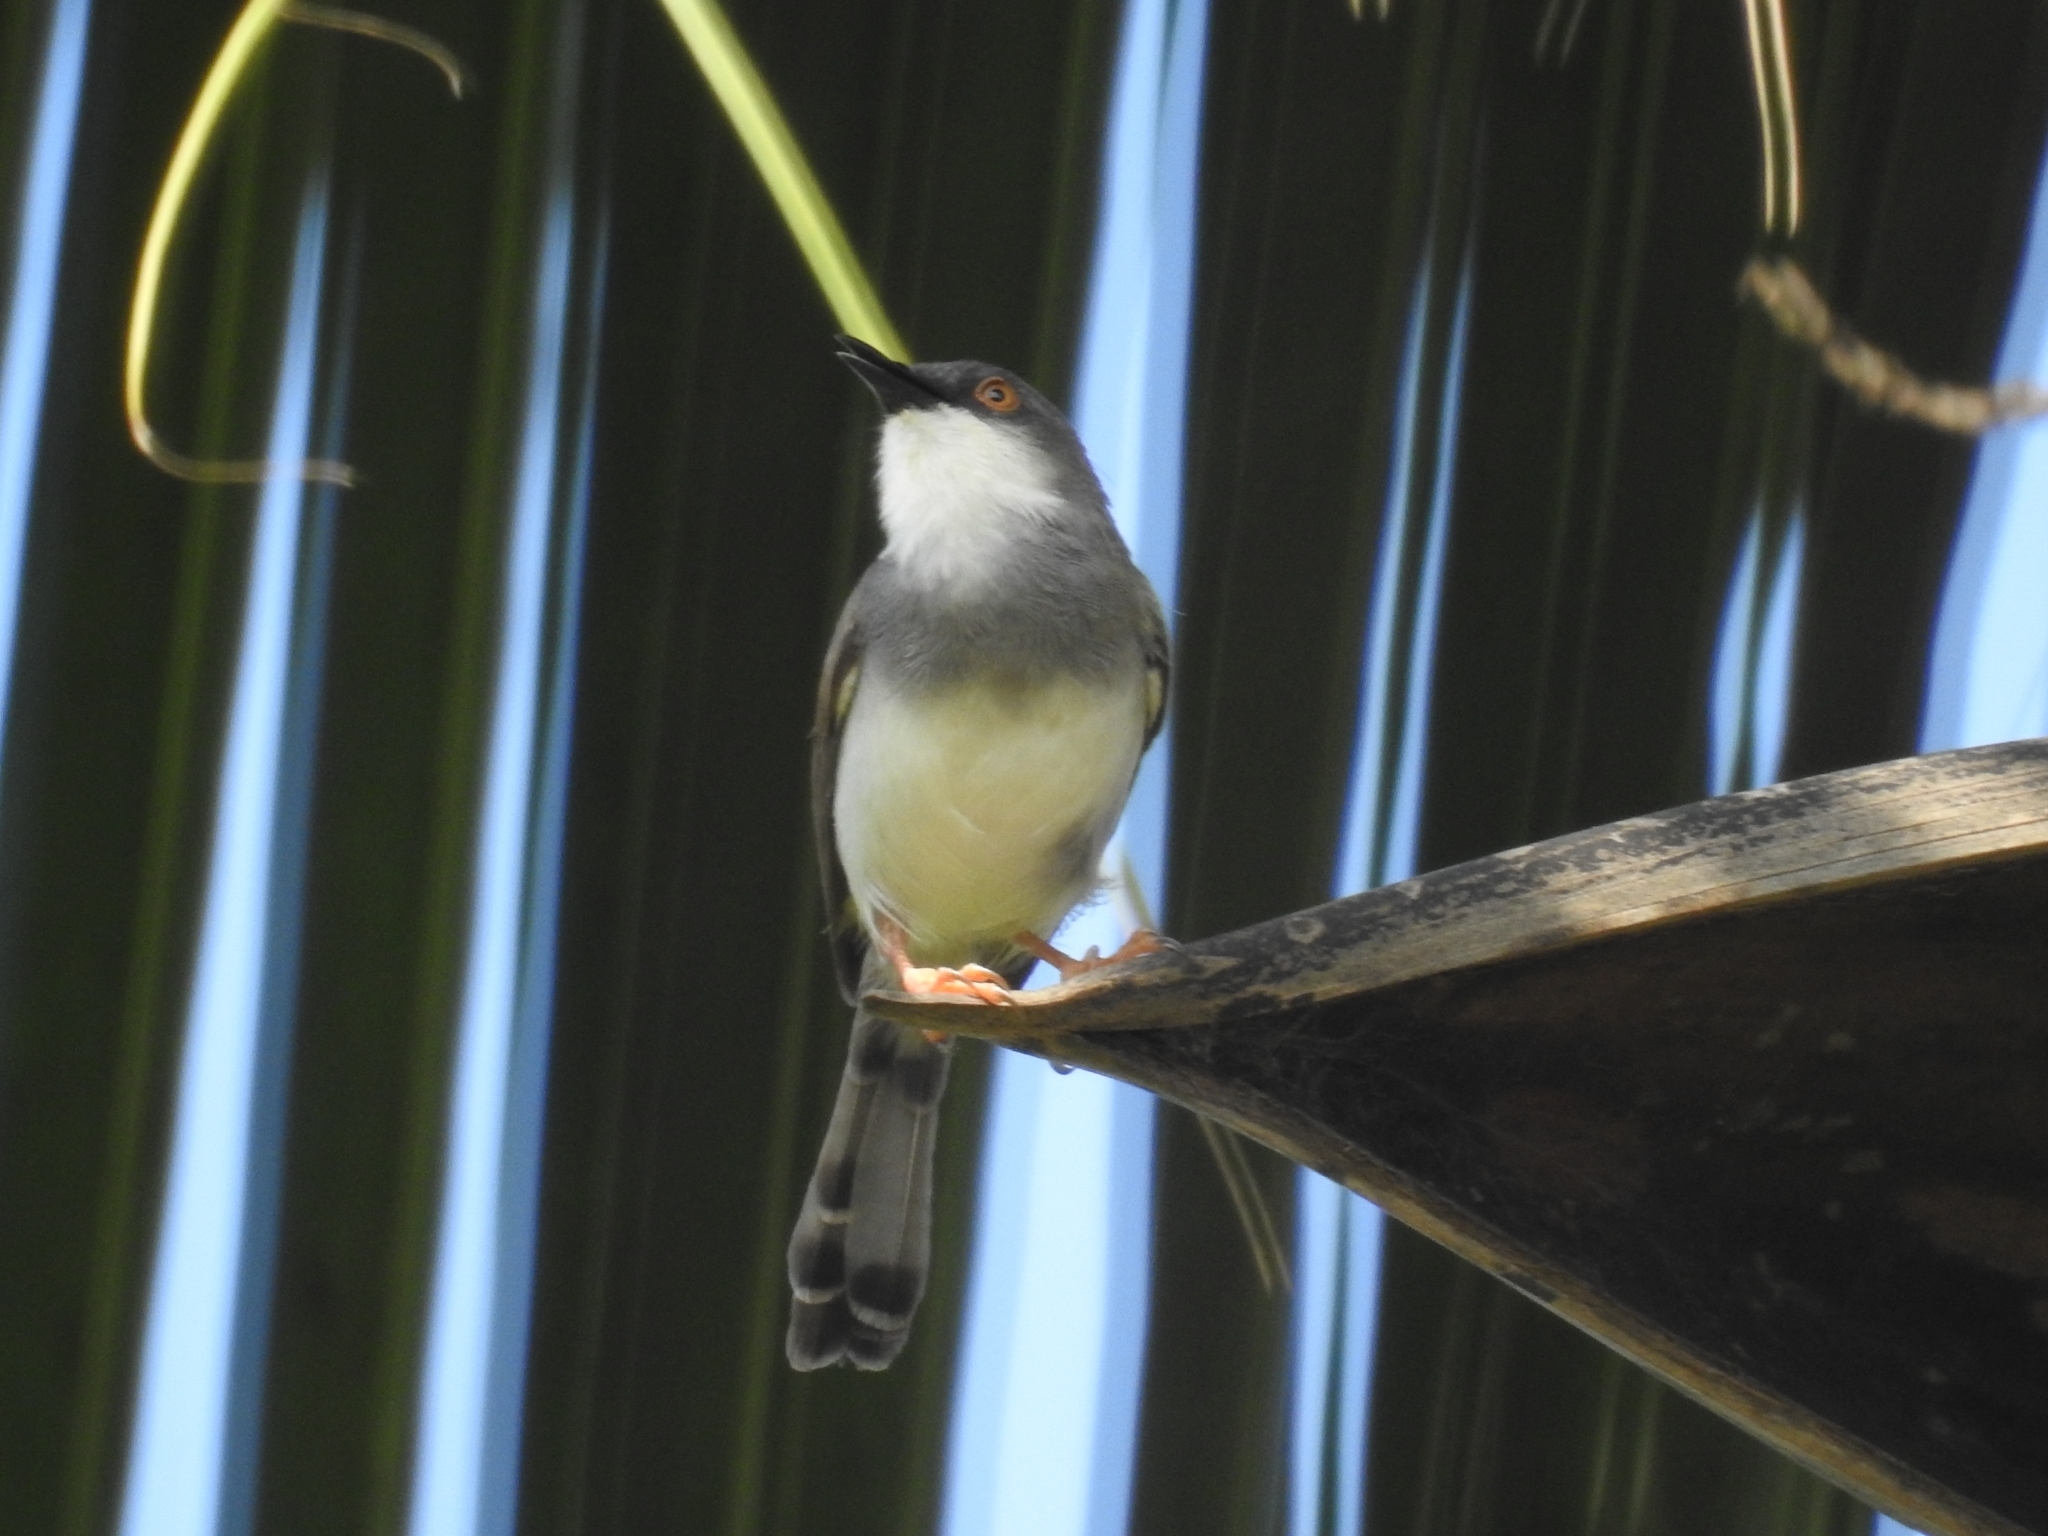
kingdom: Animalia
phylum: Chordata
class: Aves
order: Passeriformes
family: Cisticolidae
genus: Prinia
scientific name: Prinia hodgsonii
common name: Grey-breasted prinia
